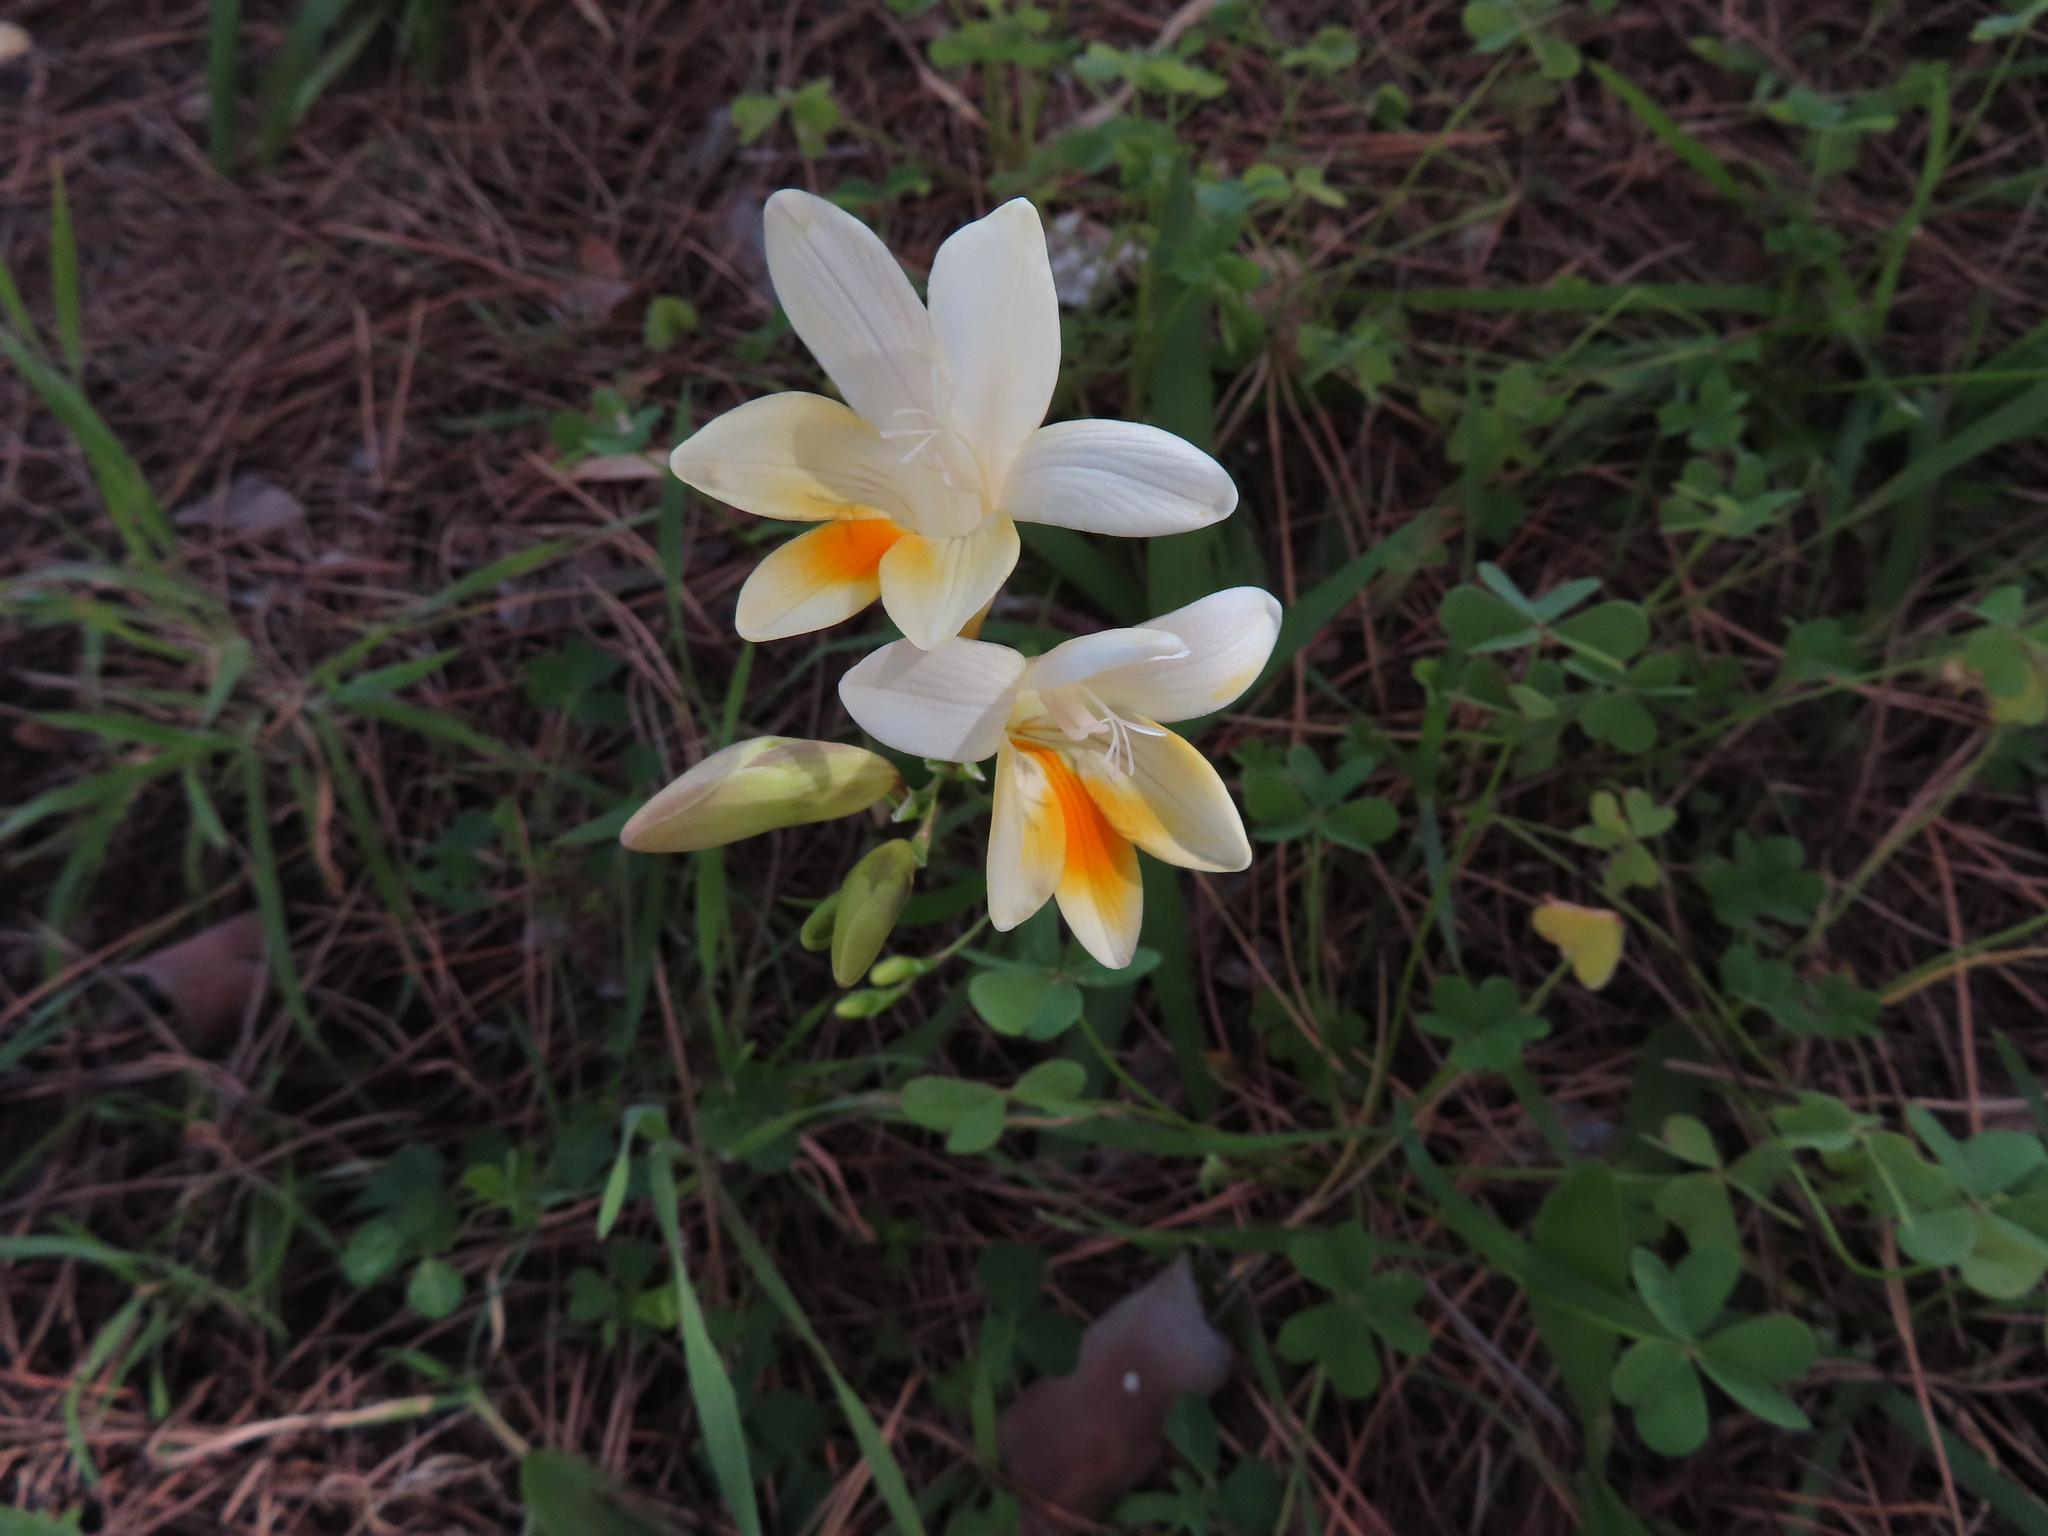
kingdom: Plantae
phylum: Tracheophyta
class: Liliopsida
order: Asparagales
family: Iridaceae
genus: Freesia
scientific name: Freesia leichtlinii
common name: Freesia
